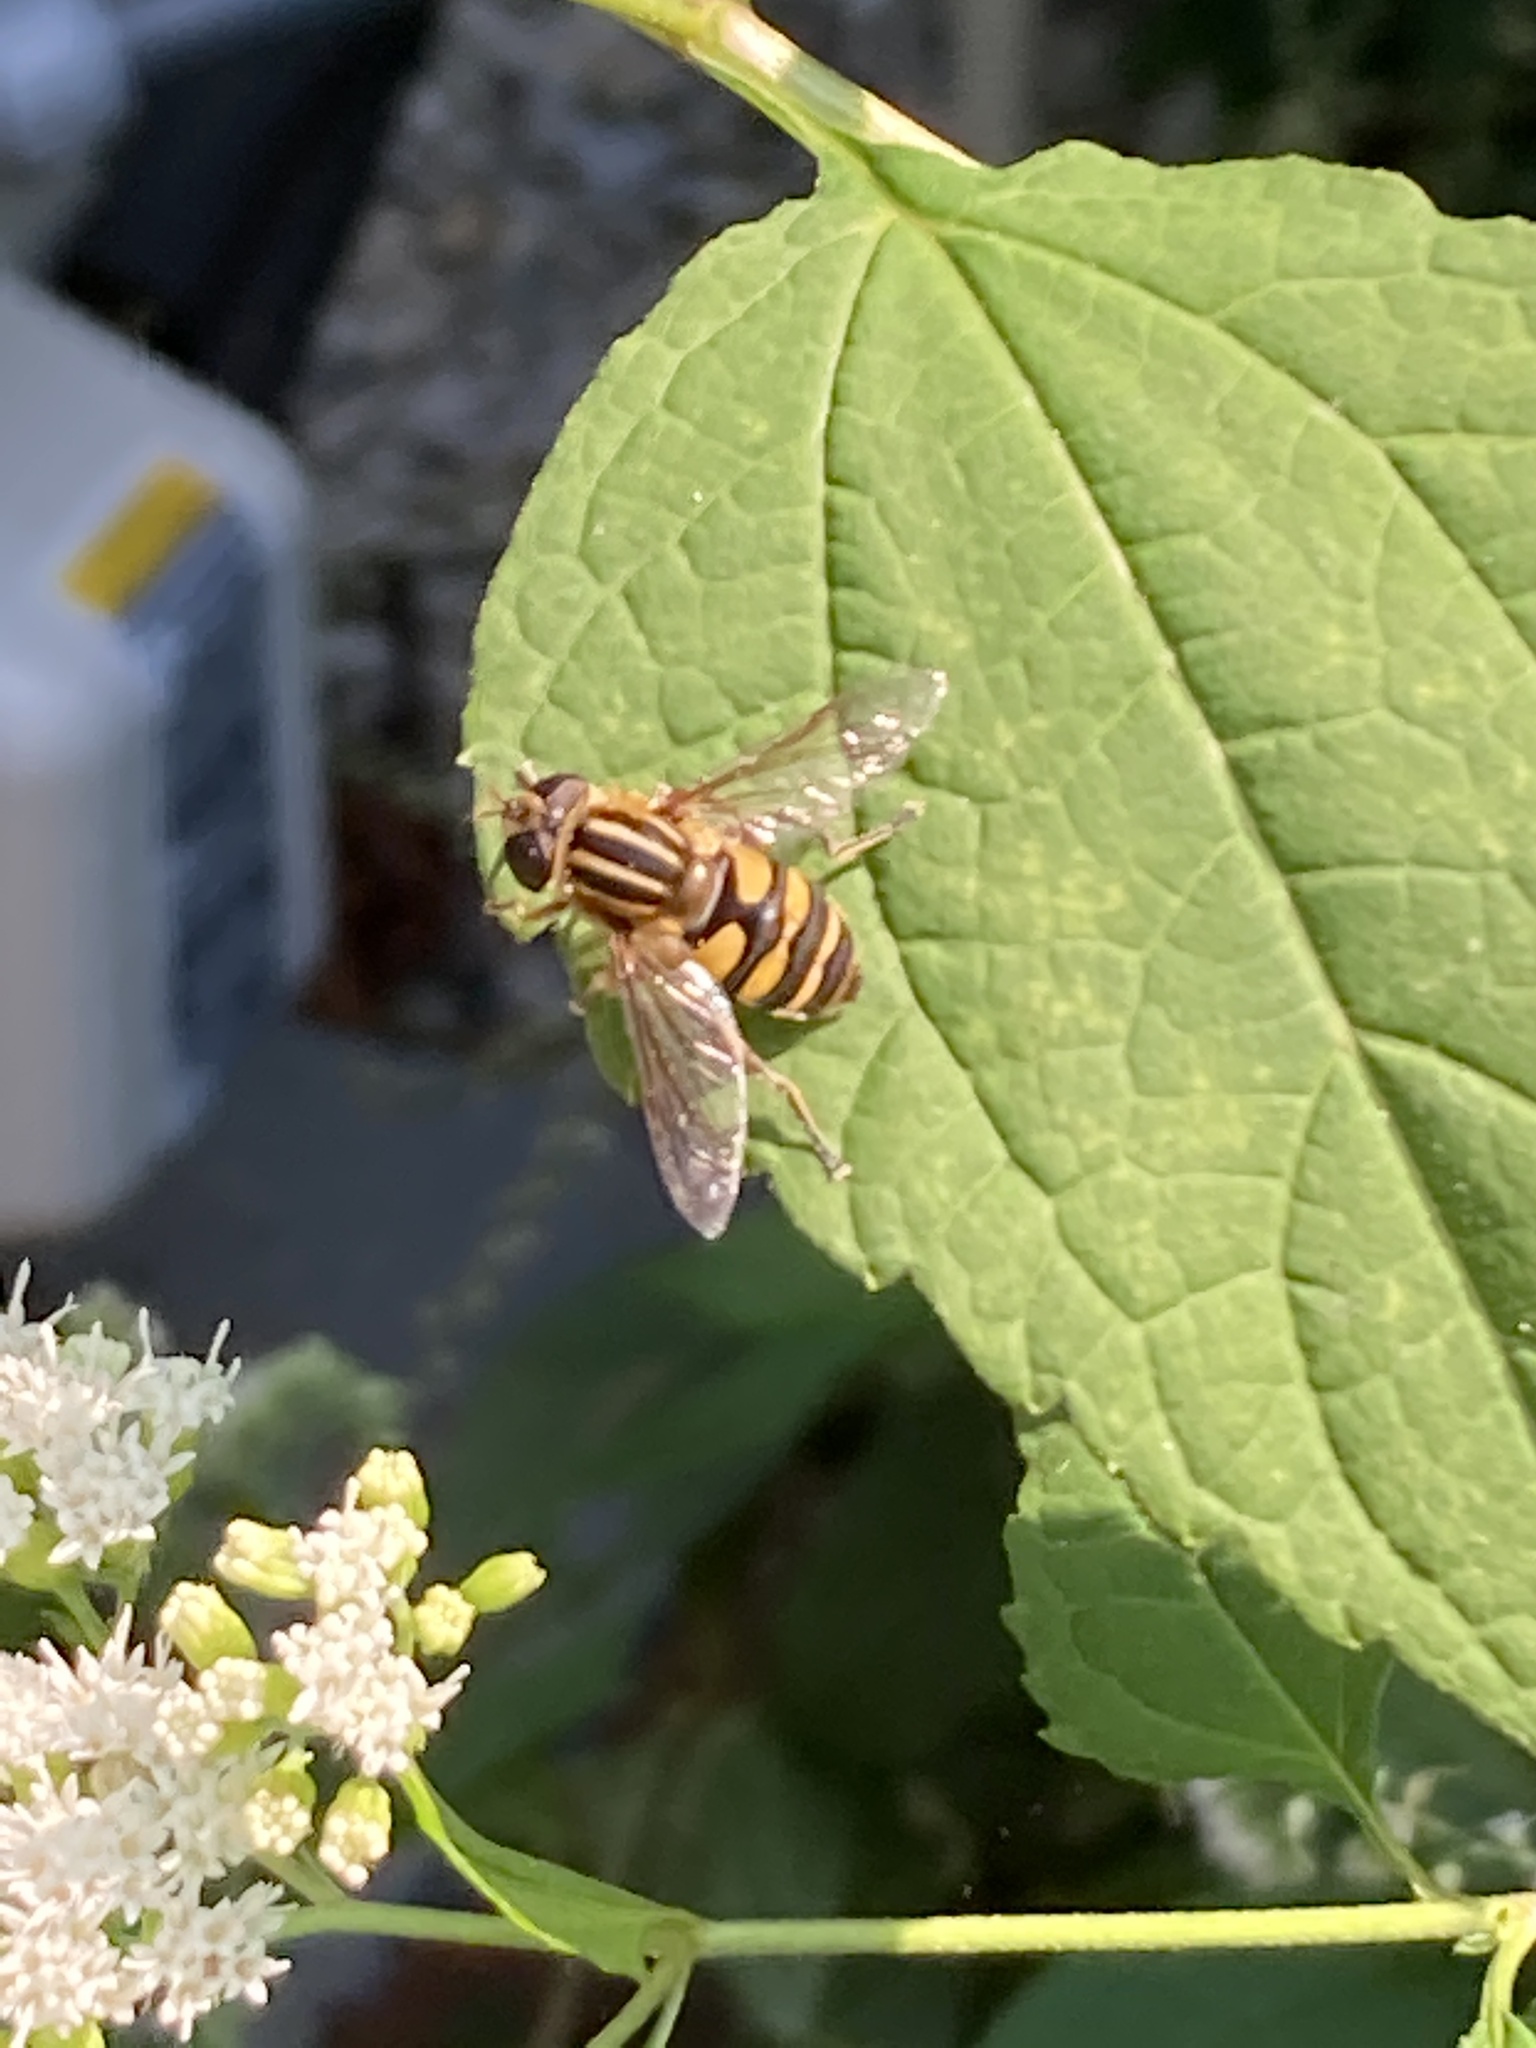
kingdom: Animalia
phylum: Arthropoda
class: Insecta
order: Diptera
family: Syrphidae
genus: Helophilus
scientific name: Helophilus fasciatus
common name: Narrow-headed marsh fly
